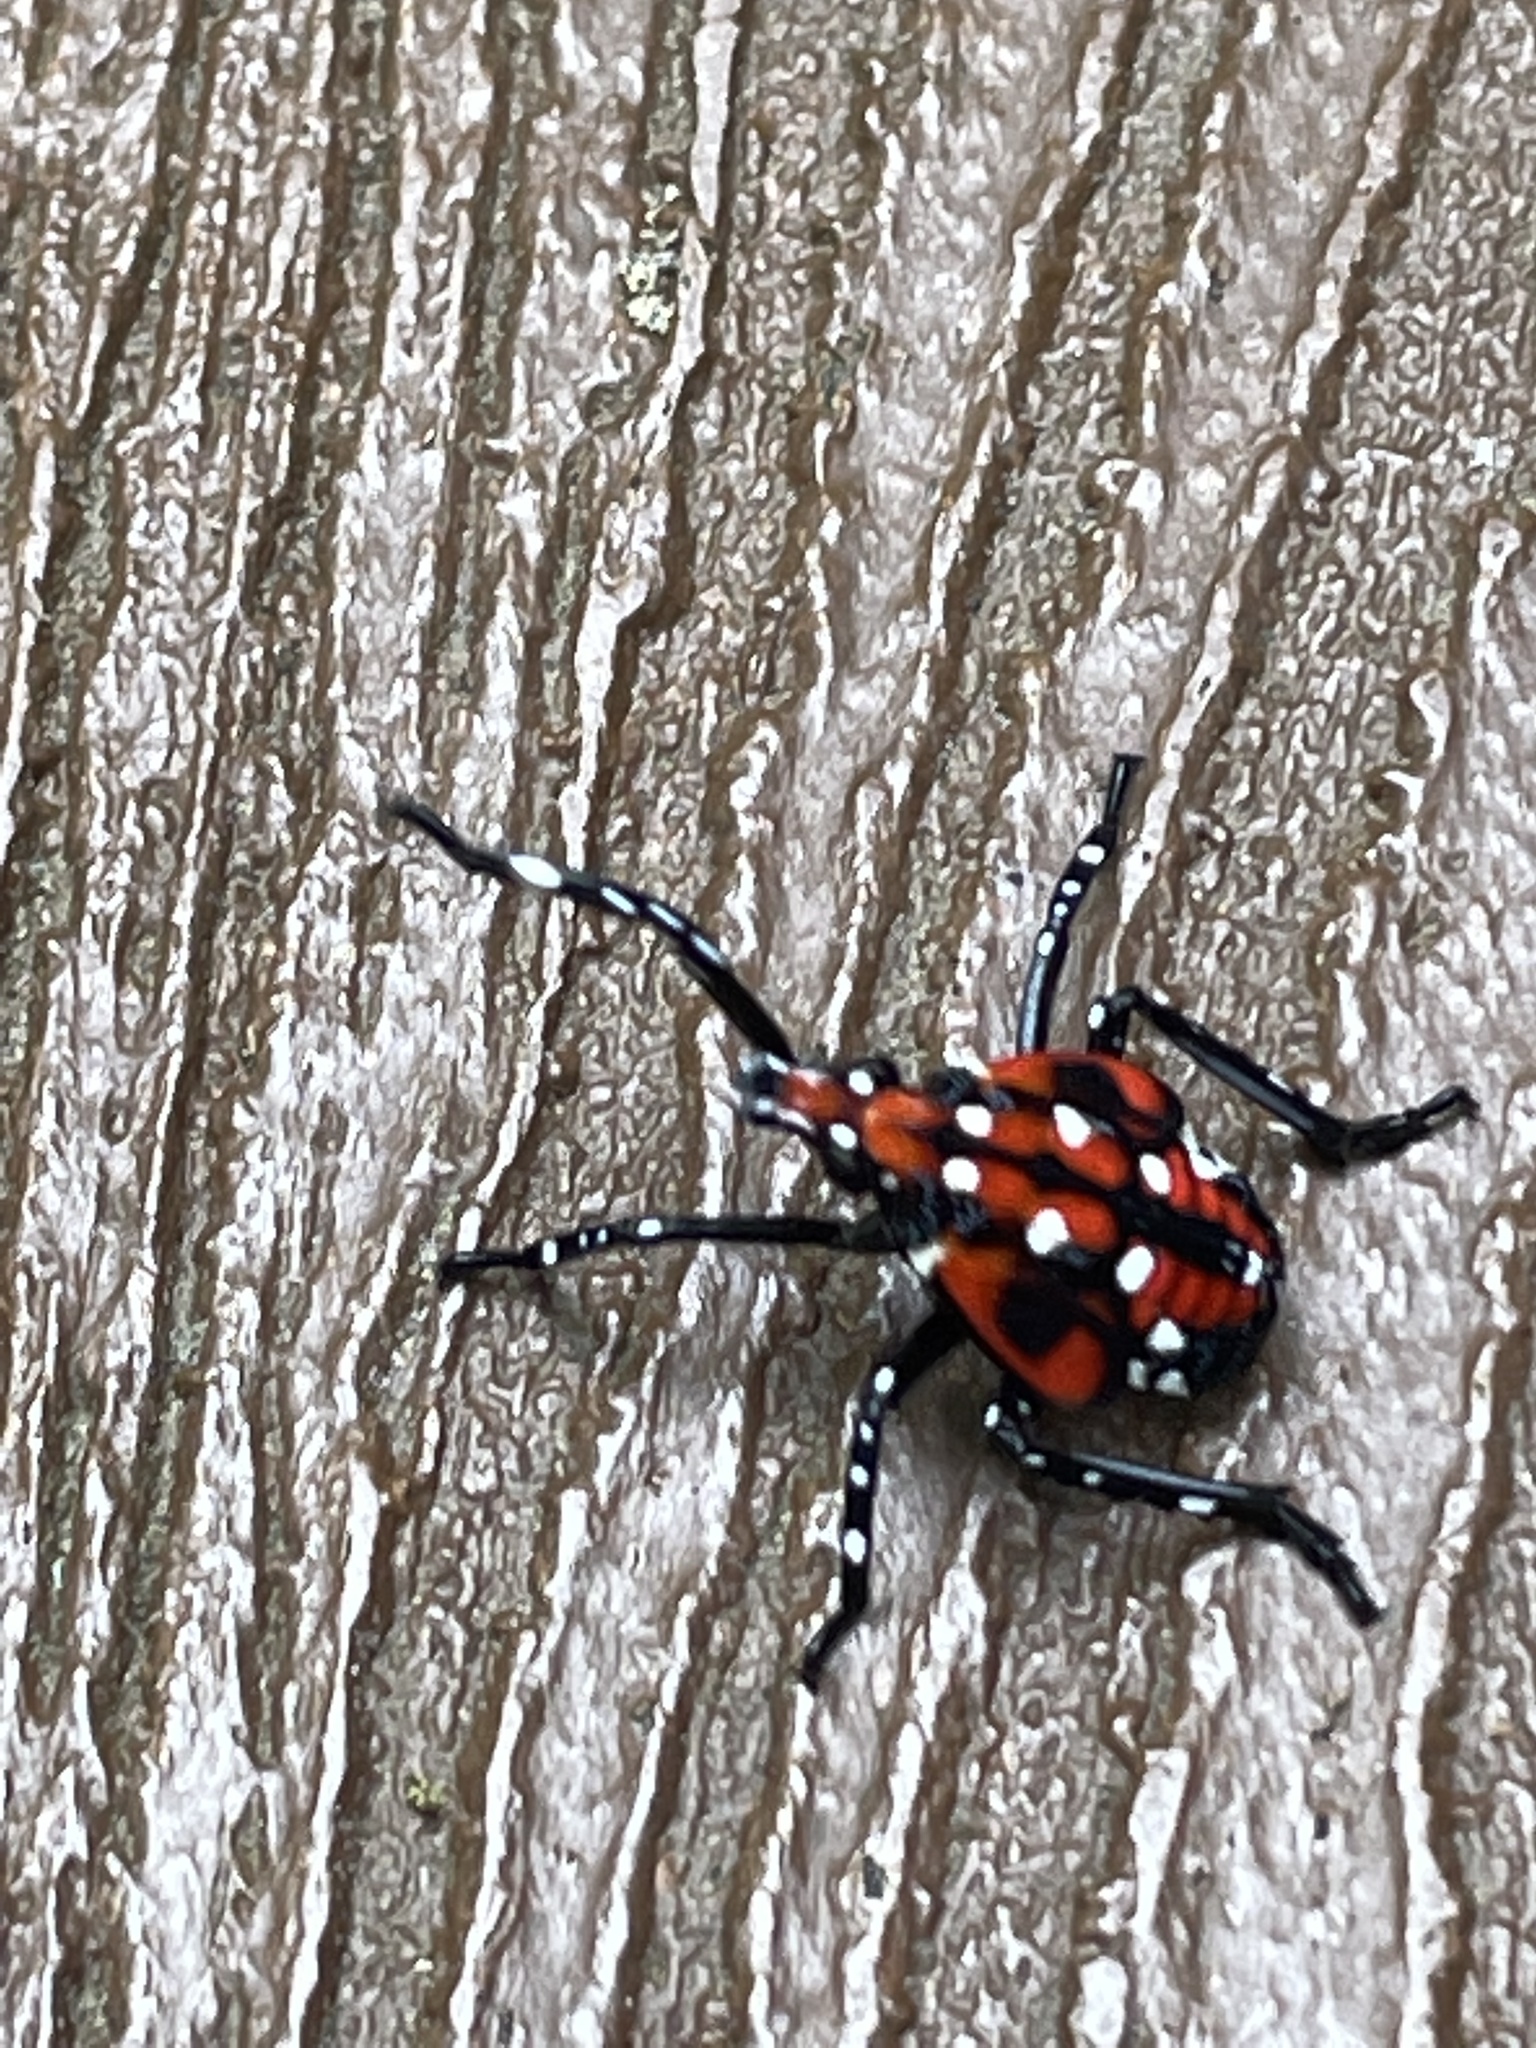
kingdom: Animalia
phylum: Arthropoda
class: Insecta
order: Hemiptera
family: Fulgoridae
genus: Lycorma
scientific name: Lycorma delicatula
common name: Spotted lanternfly
